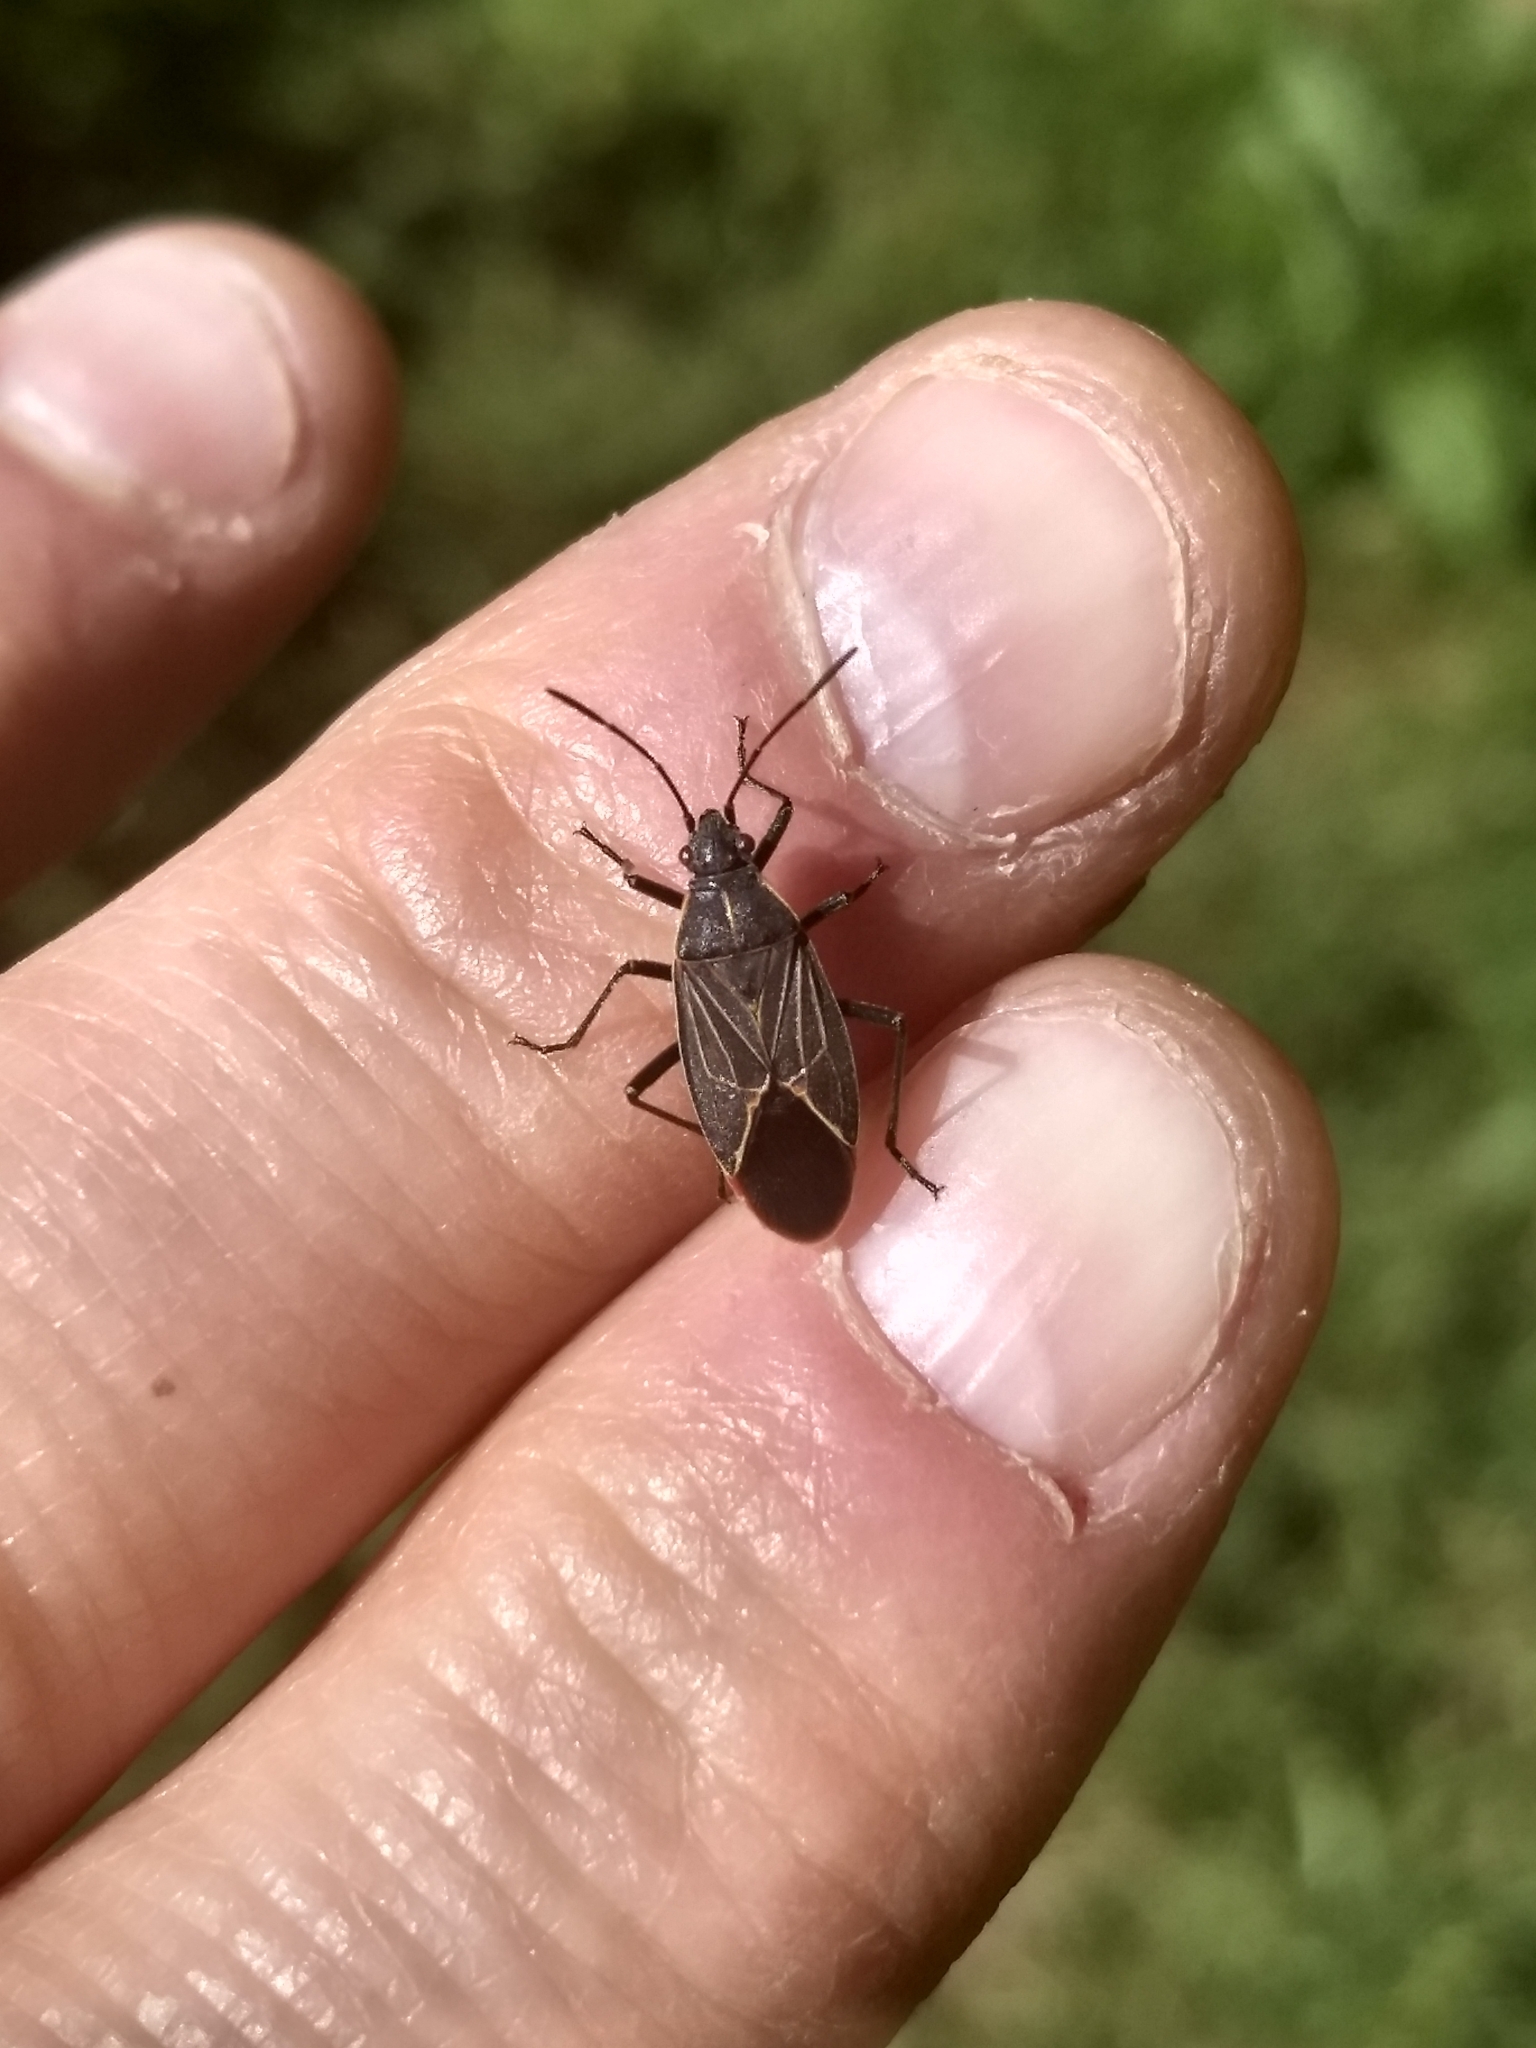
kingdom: Animalia
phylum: Arthropoda
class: Insecta
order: Hemiptera
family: Rhopalidae
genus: Boisea
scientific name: Boisea rubrolineata
